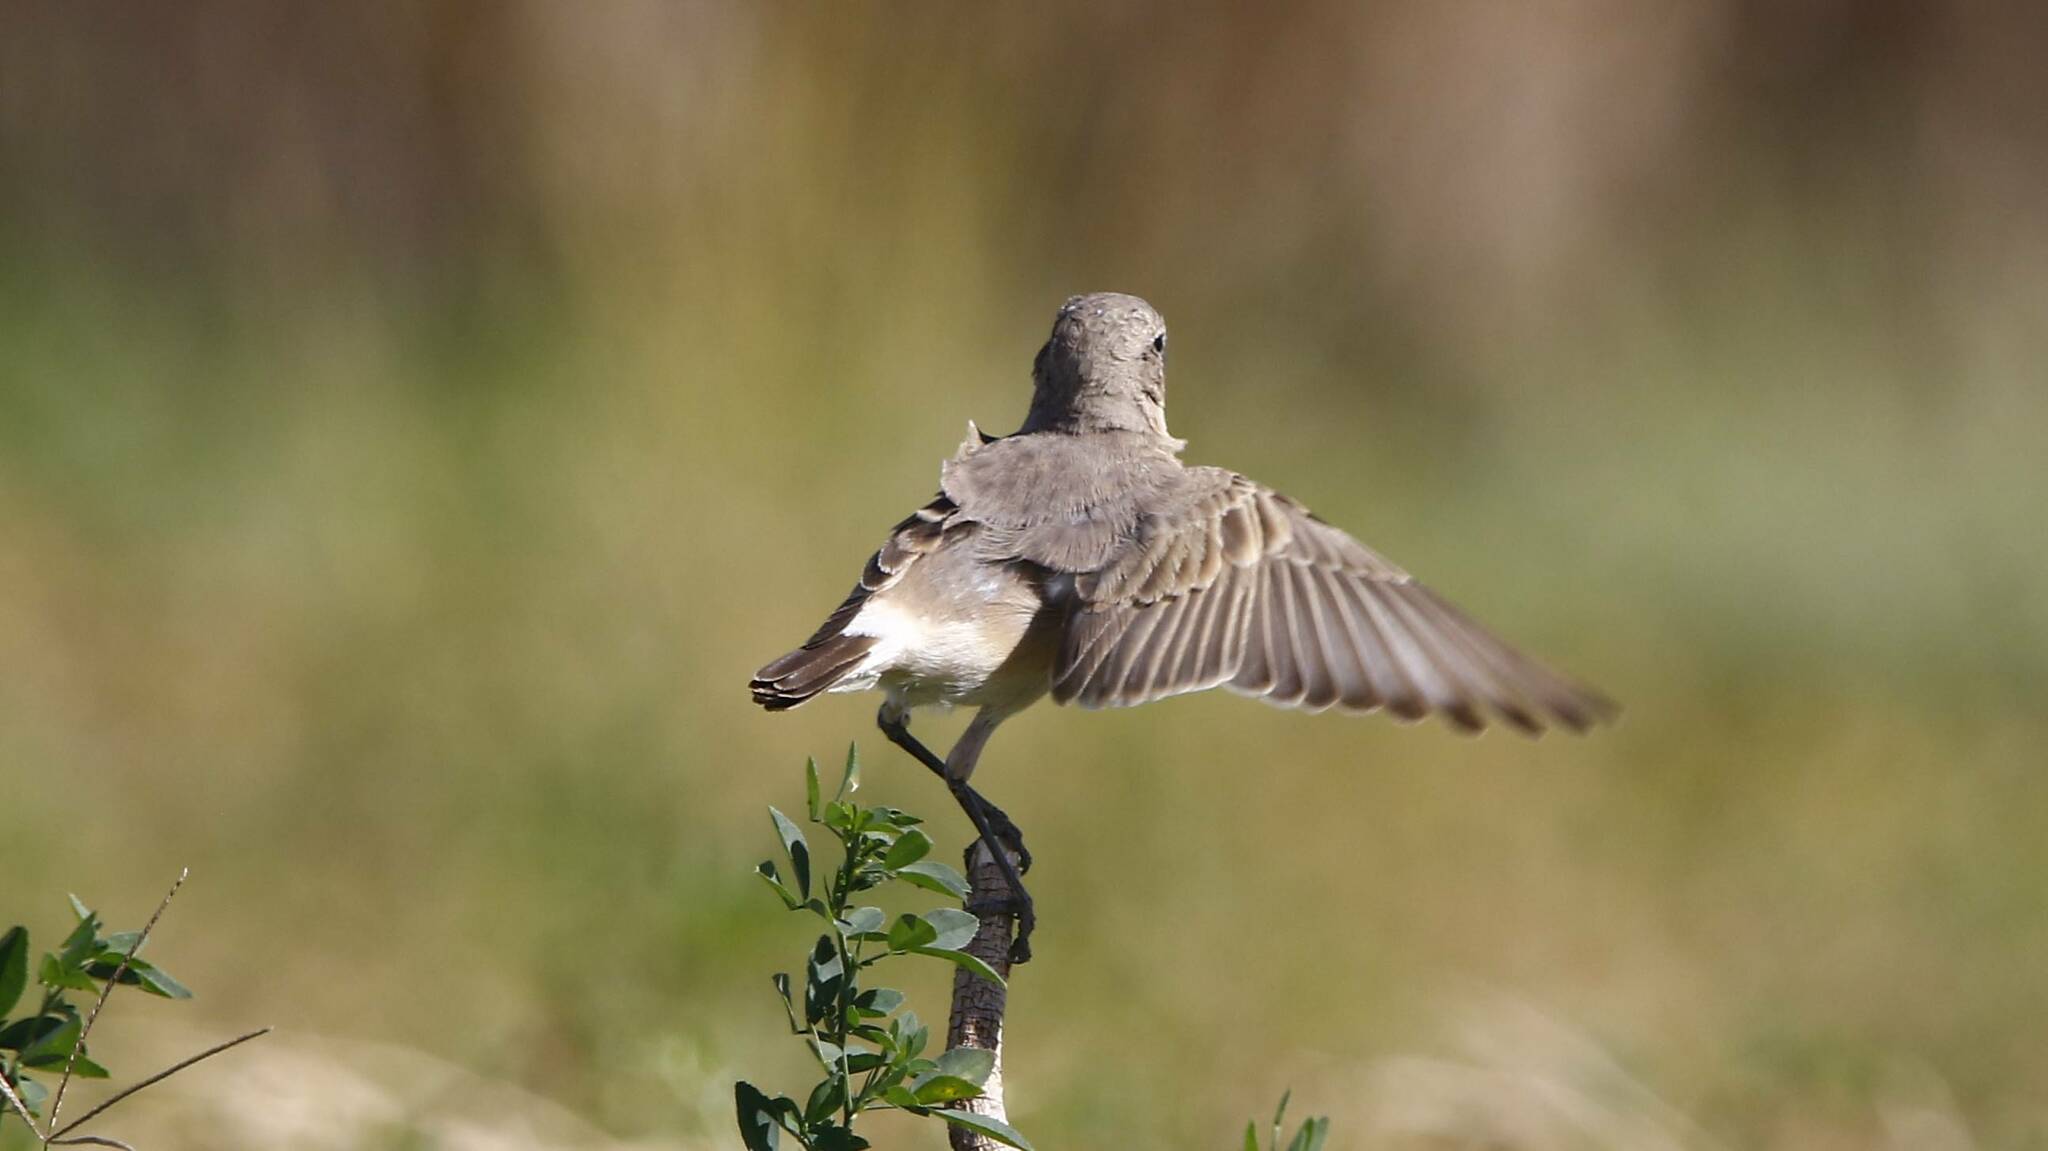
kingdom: Animalia
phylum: Chordata
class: Aves
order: Passeriformes
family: Muscicapidae
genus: Oenanthe
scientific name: Oenanthe isabellina
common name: Isabelline wheatear
